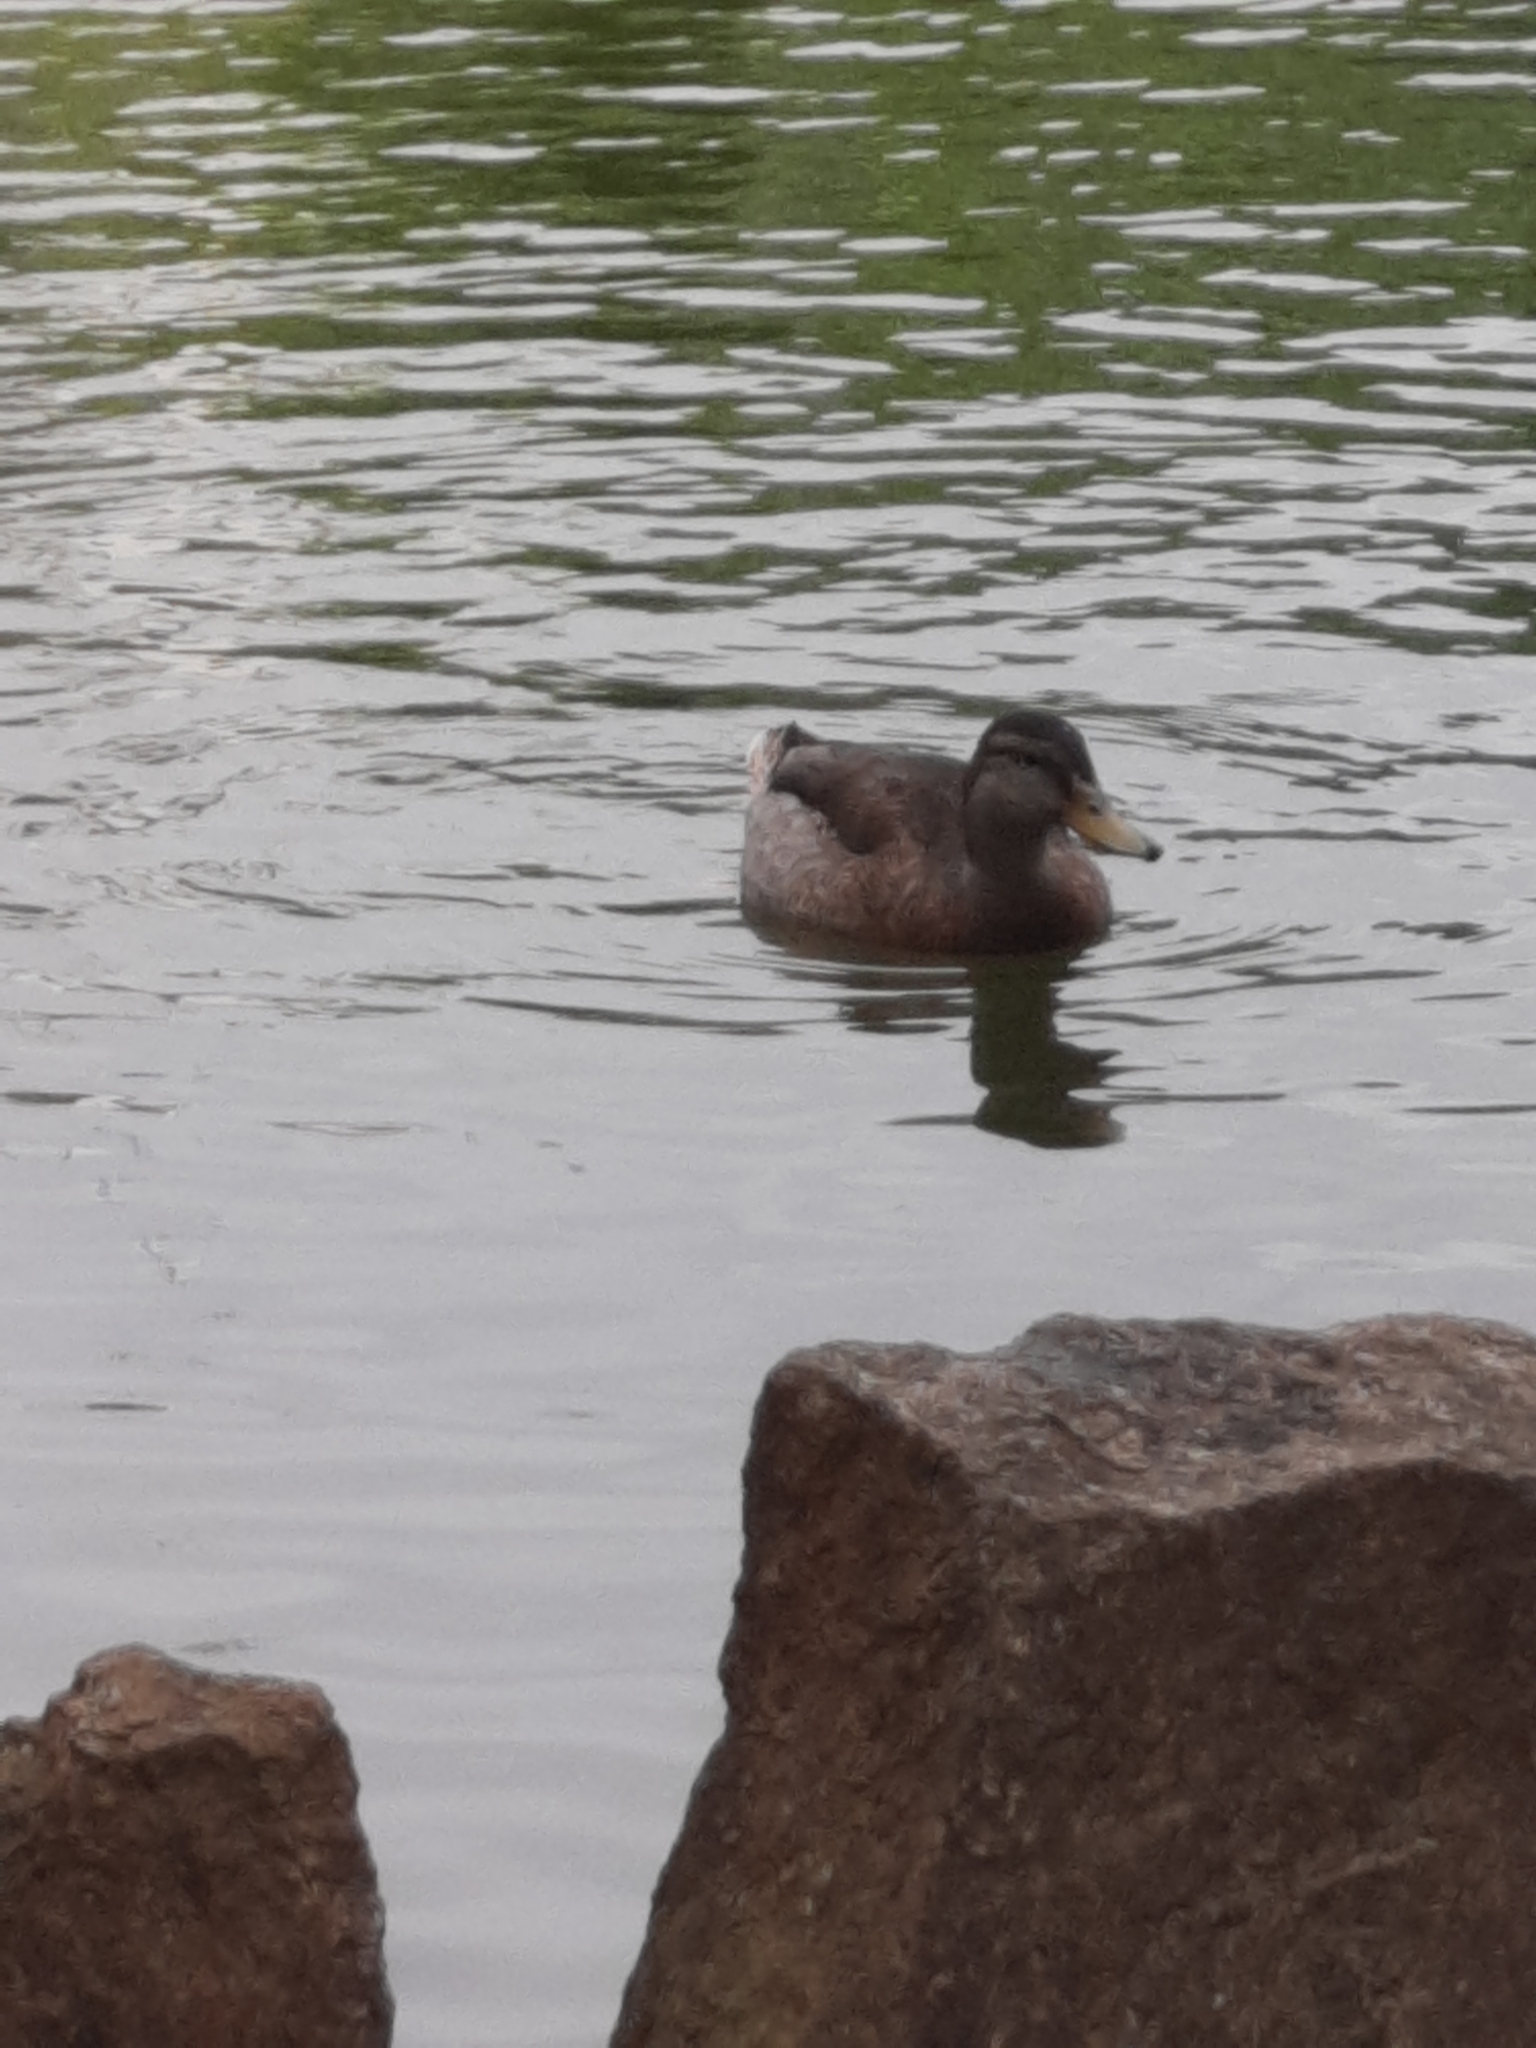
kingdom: Animalia
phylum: Chordata
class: Aves
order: Anseriformes
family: Anatidae
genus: Anas
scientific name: Anas platyrhynchos
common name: Mallard
